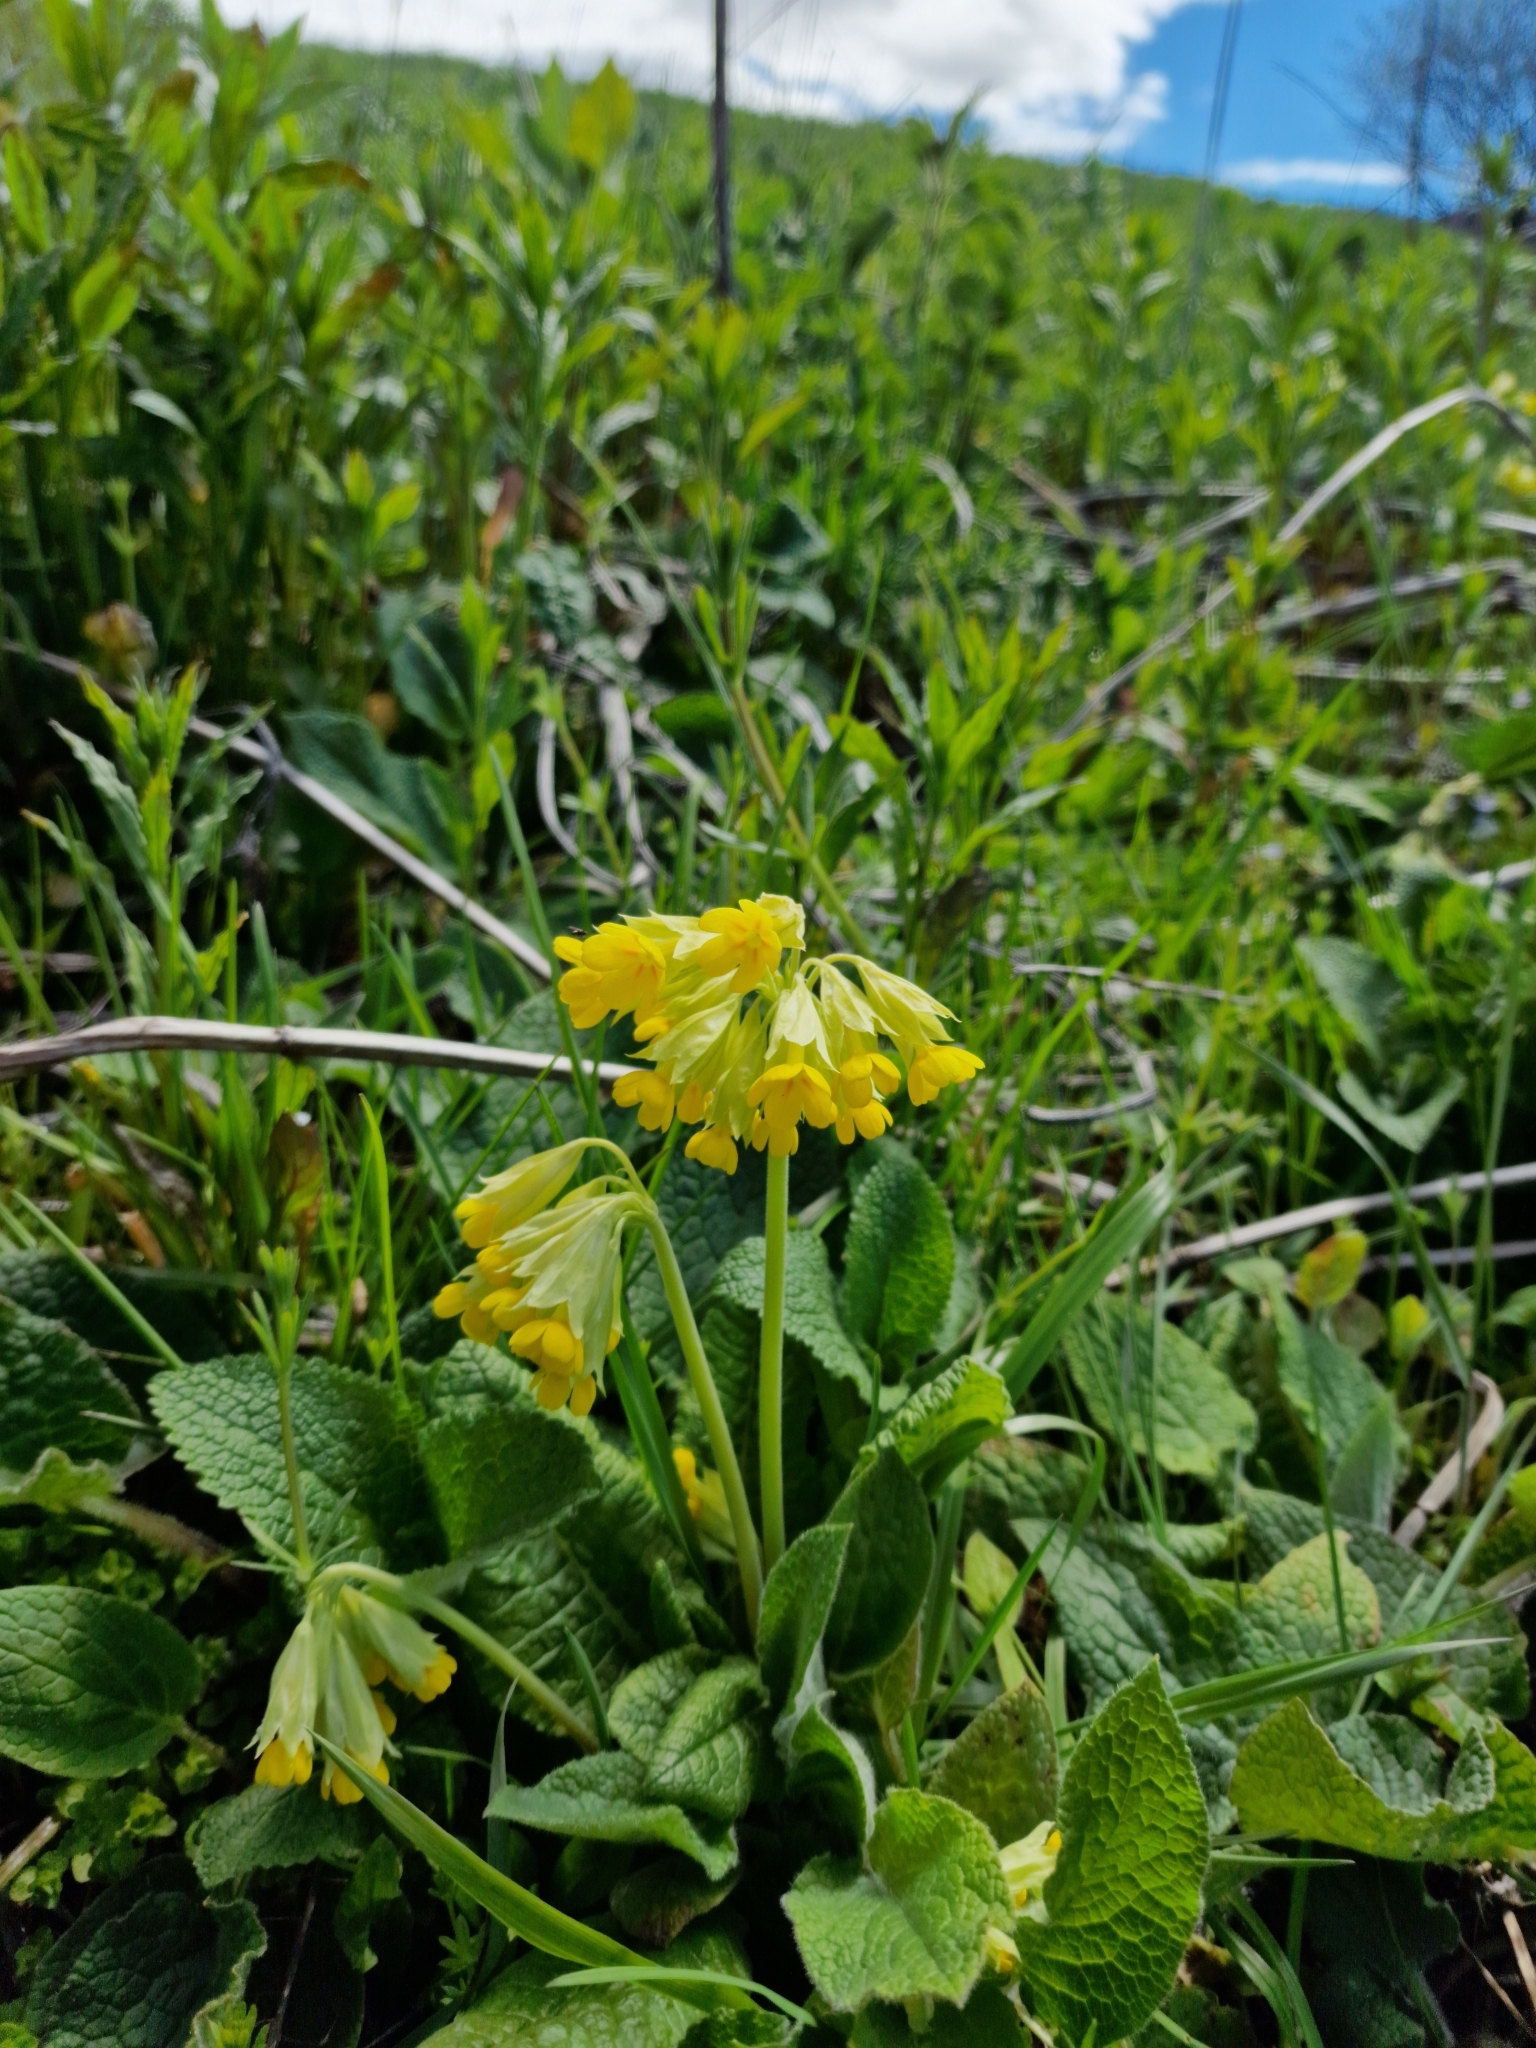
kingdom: Plantae
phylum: Tracheophyta
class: Magnoliopsida
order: Ericales
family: Primulaceae
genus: Primula
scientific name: Primula veris
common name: Cowslip
